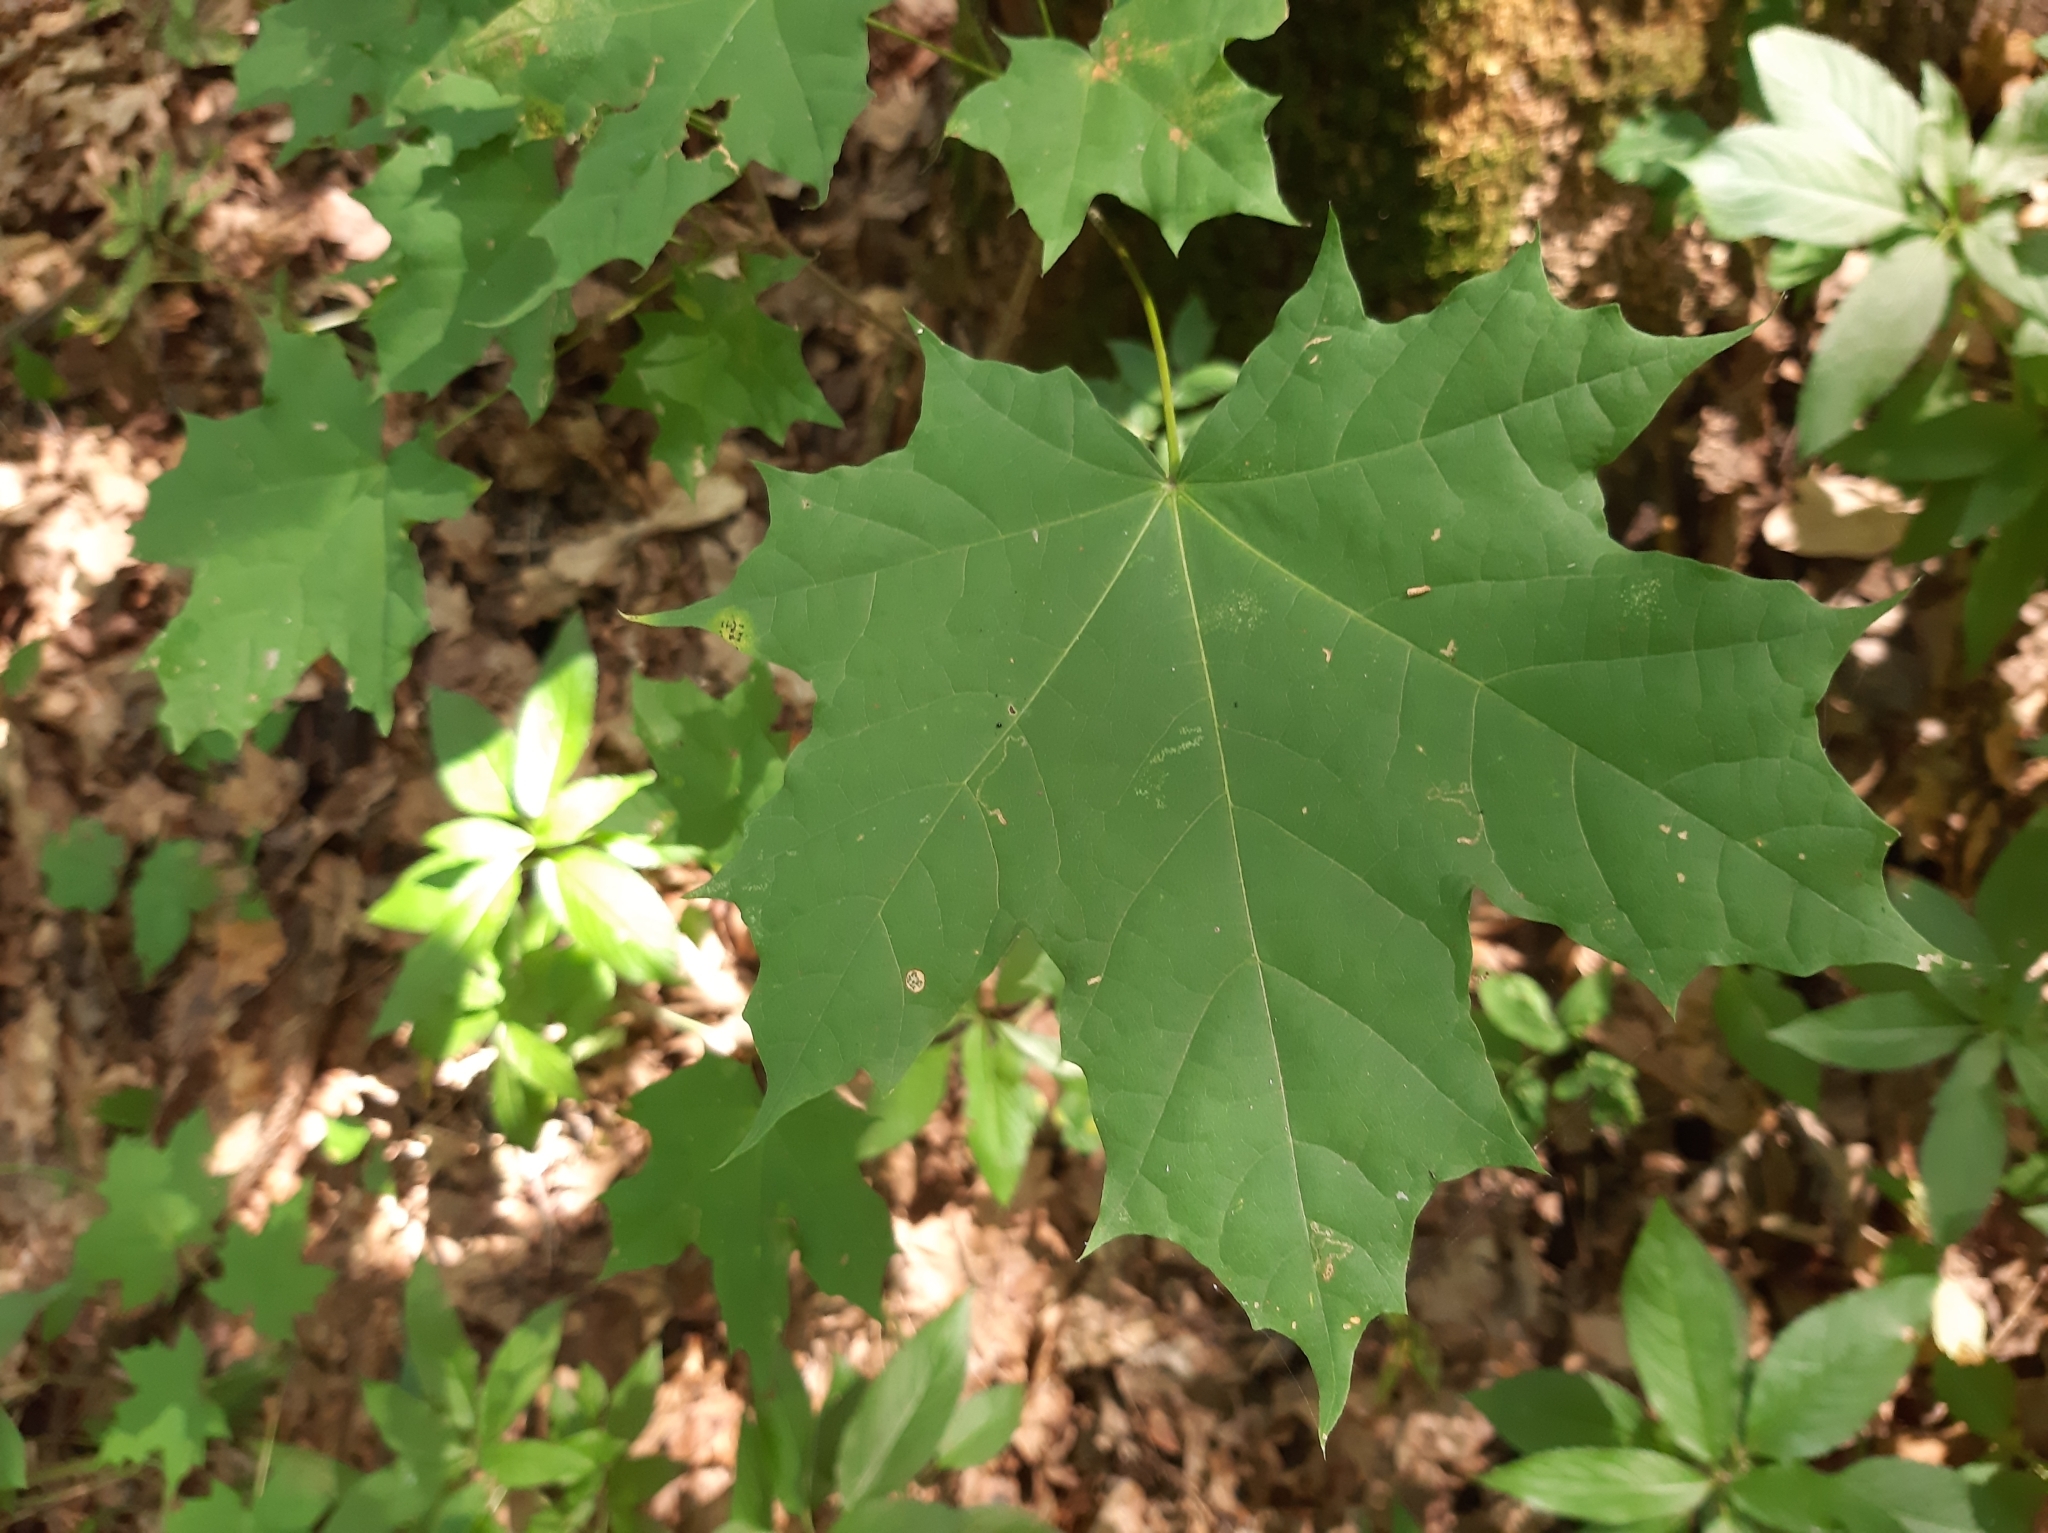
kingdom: Plantae
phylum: Tracheophyta
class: Magnoliopsida
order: Sapindales
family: Sapindaceae
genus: Acer
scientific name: Acer platanoides
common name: Norway maple
